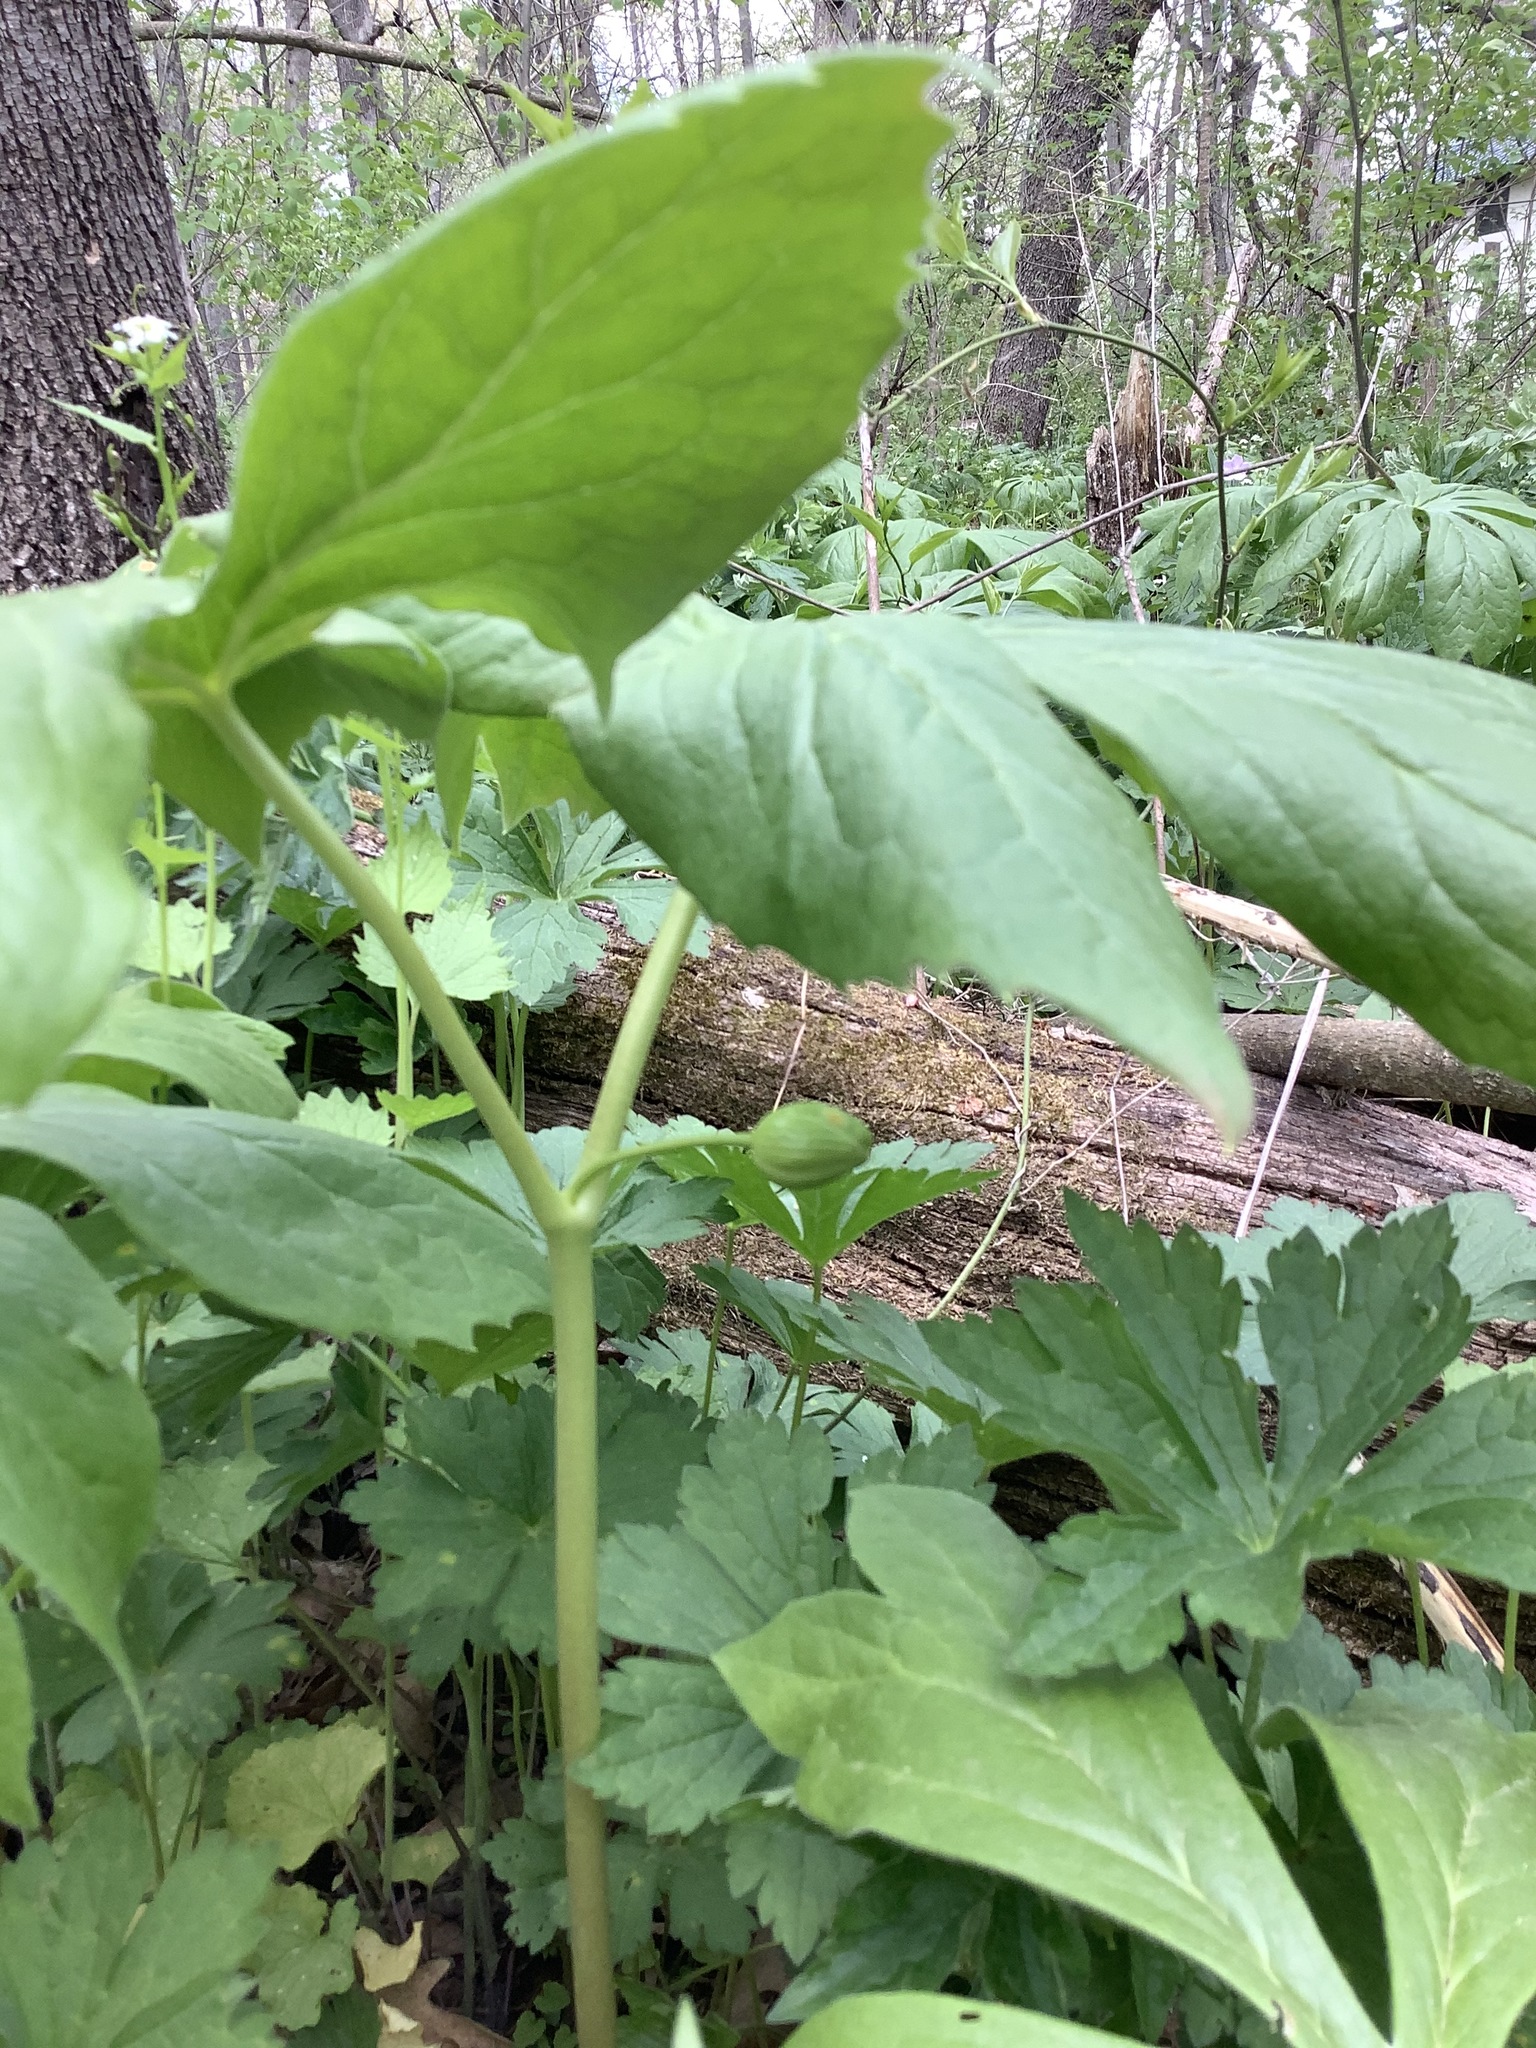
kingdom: Plantae
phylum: Tracheophyta
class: Magnoliopsida
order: Ranunculales
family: Berberidaceae
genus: Podophyllum
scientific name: Podophyllum peltatum
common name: Wild mandrake
